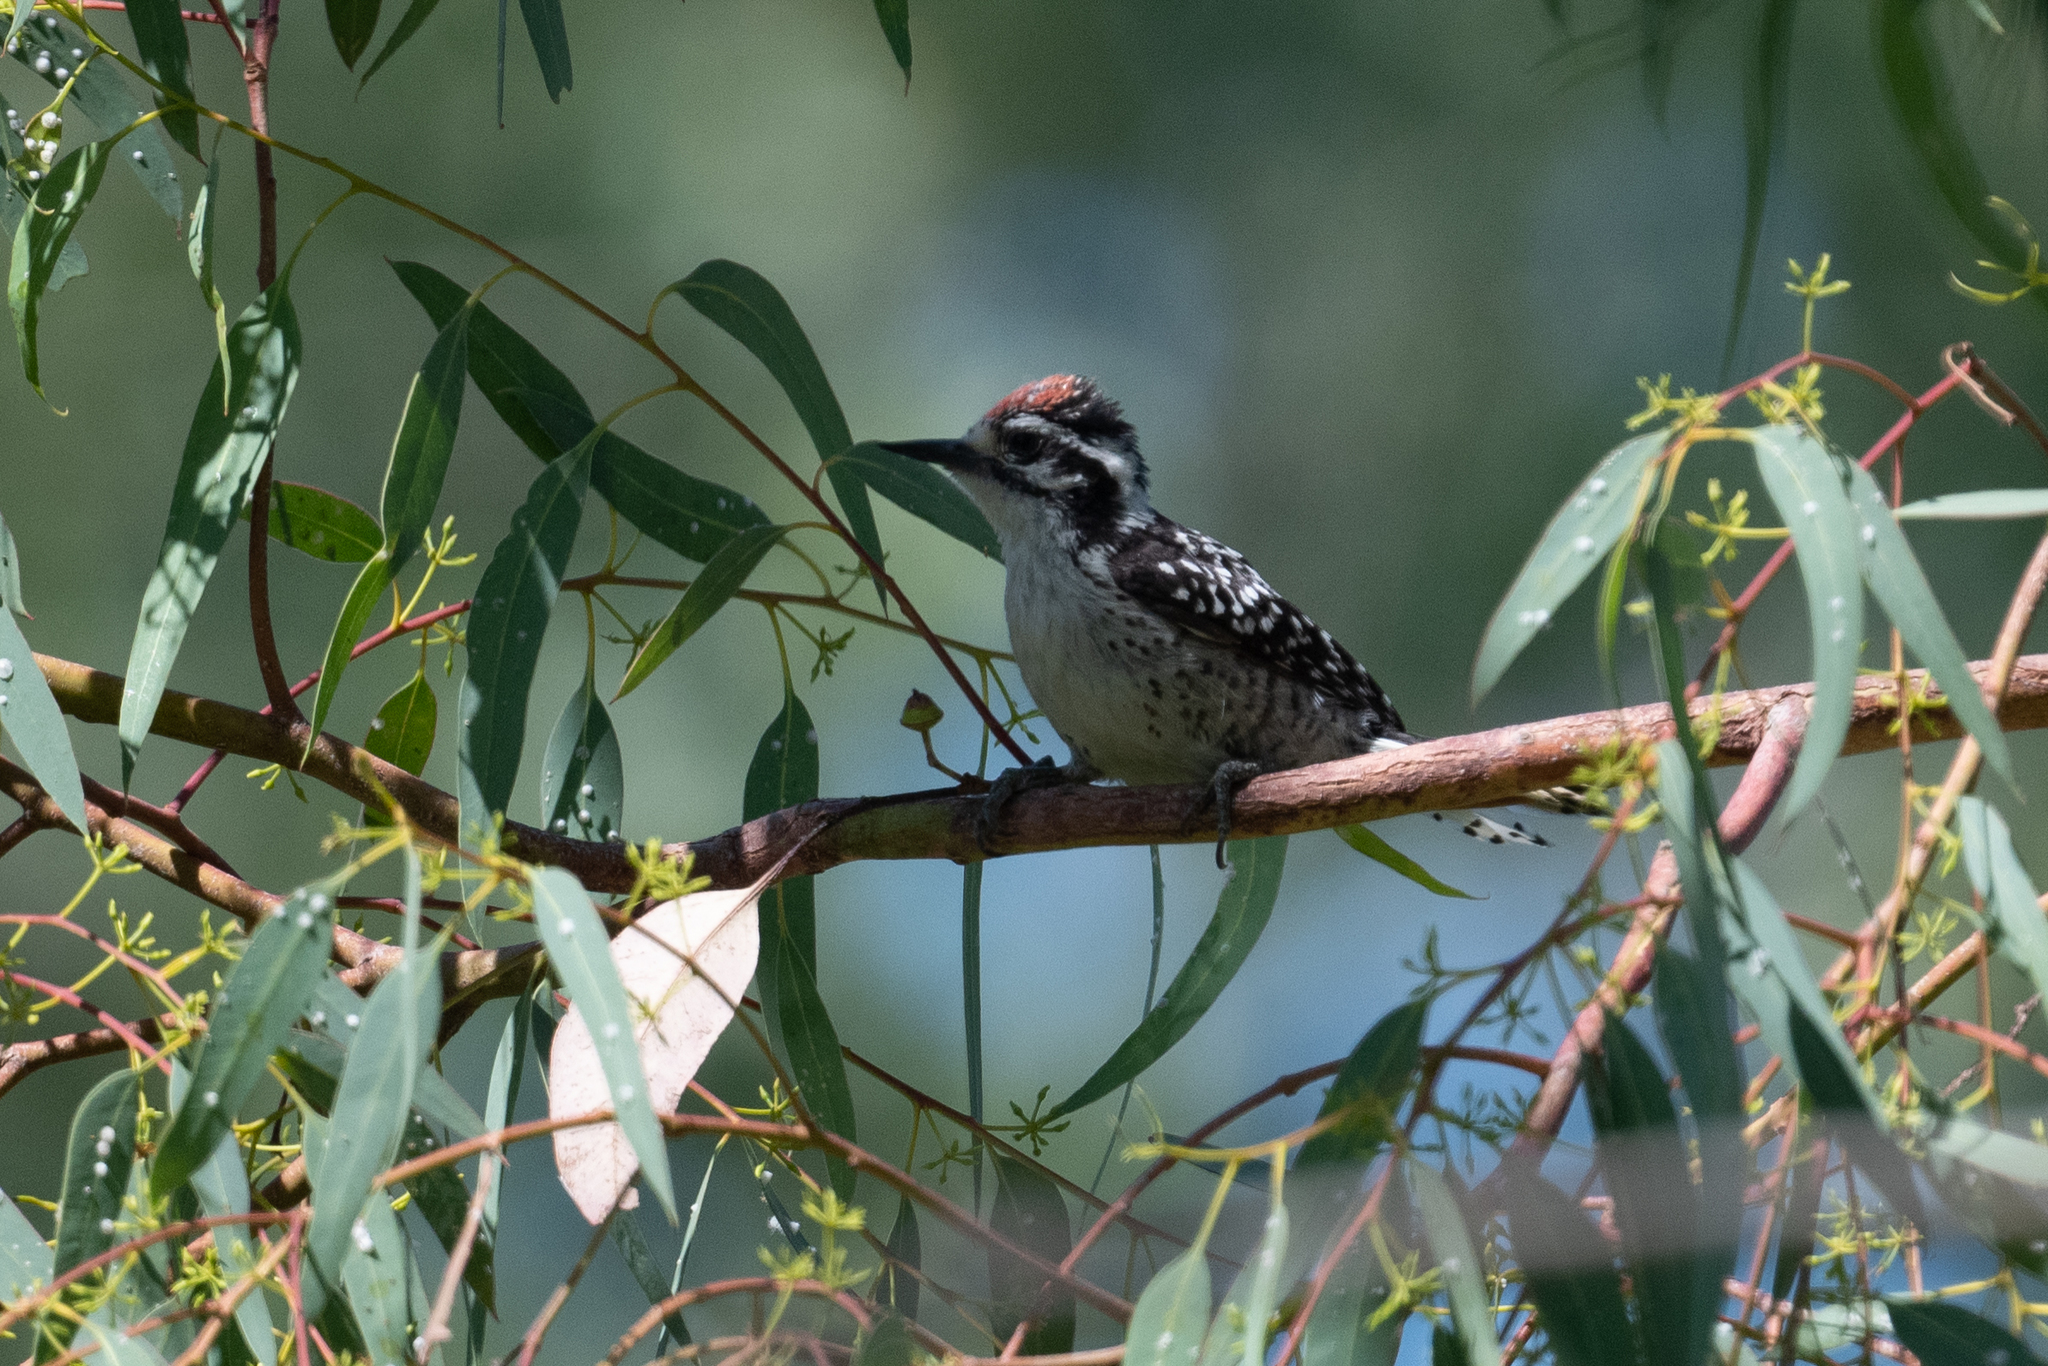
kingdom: Animalia
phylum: Chordata
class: Aves
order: Piciformes
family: Picidae
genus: Dryobates
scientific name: Dryobates nuttallii
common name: Nuttall's woodpecker
